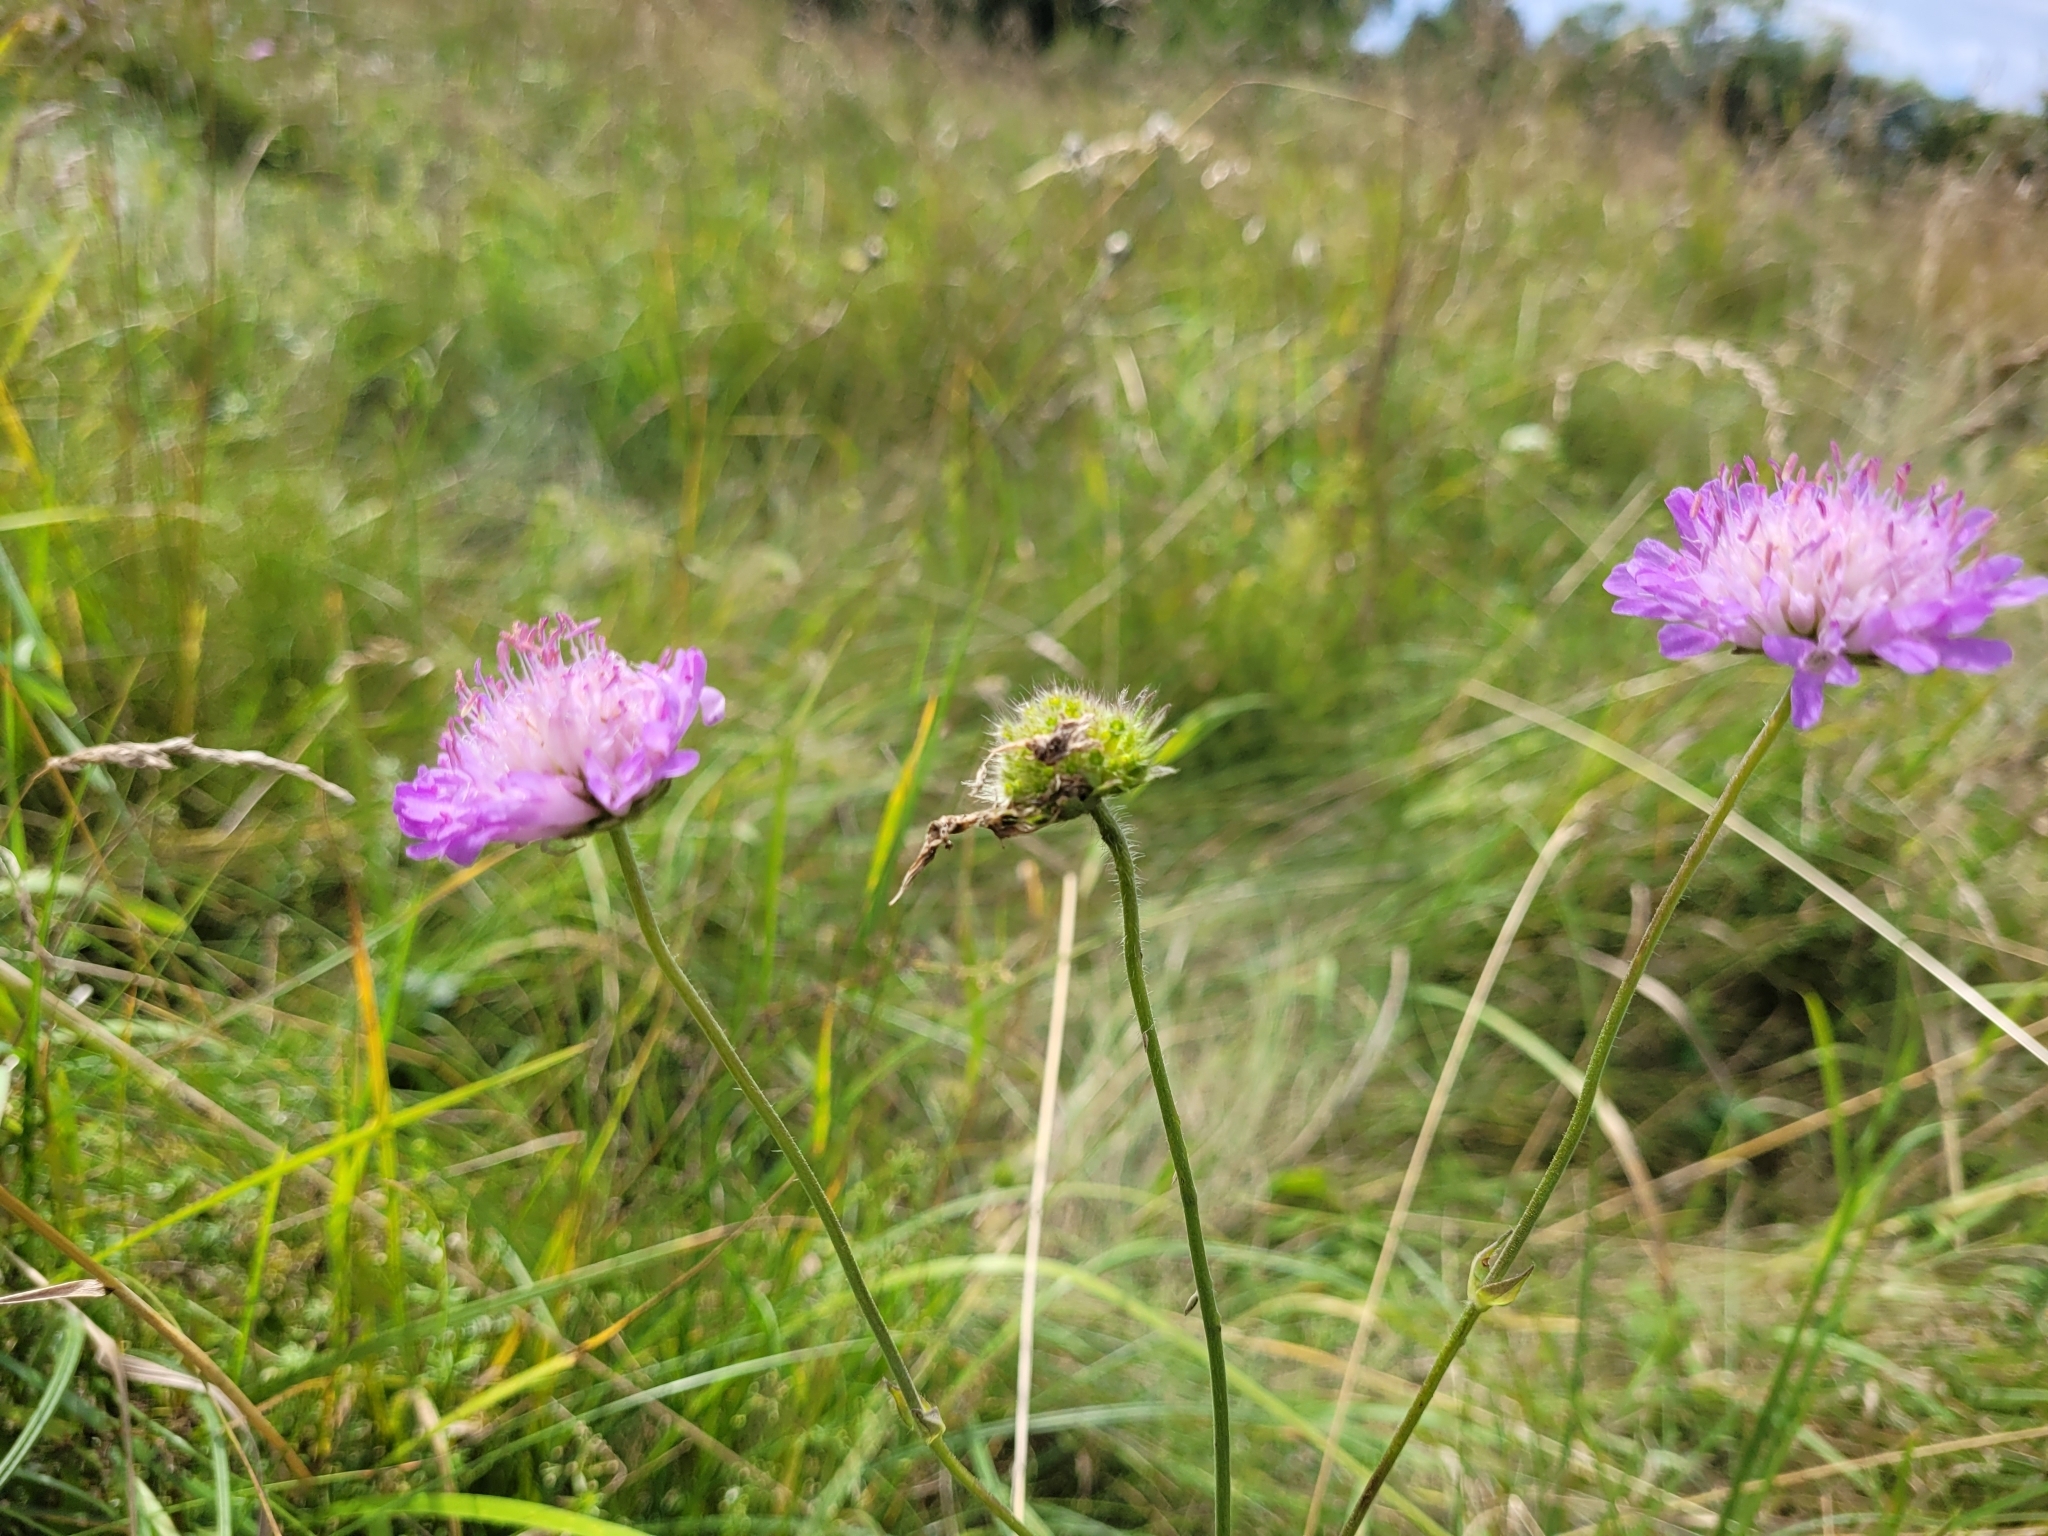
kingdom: Plantae
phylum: Tracheophyta
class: Magnoliopsida
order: Dipsacales
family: Caprifoliaceae
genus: Knautia
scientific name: Knautia arvensis
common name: Field scabiosa
